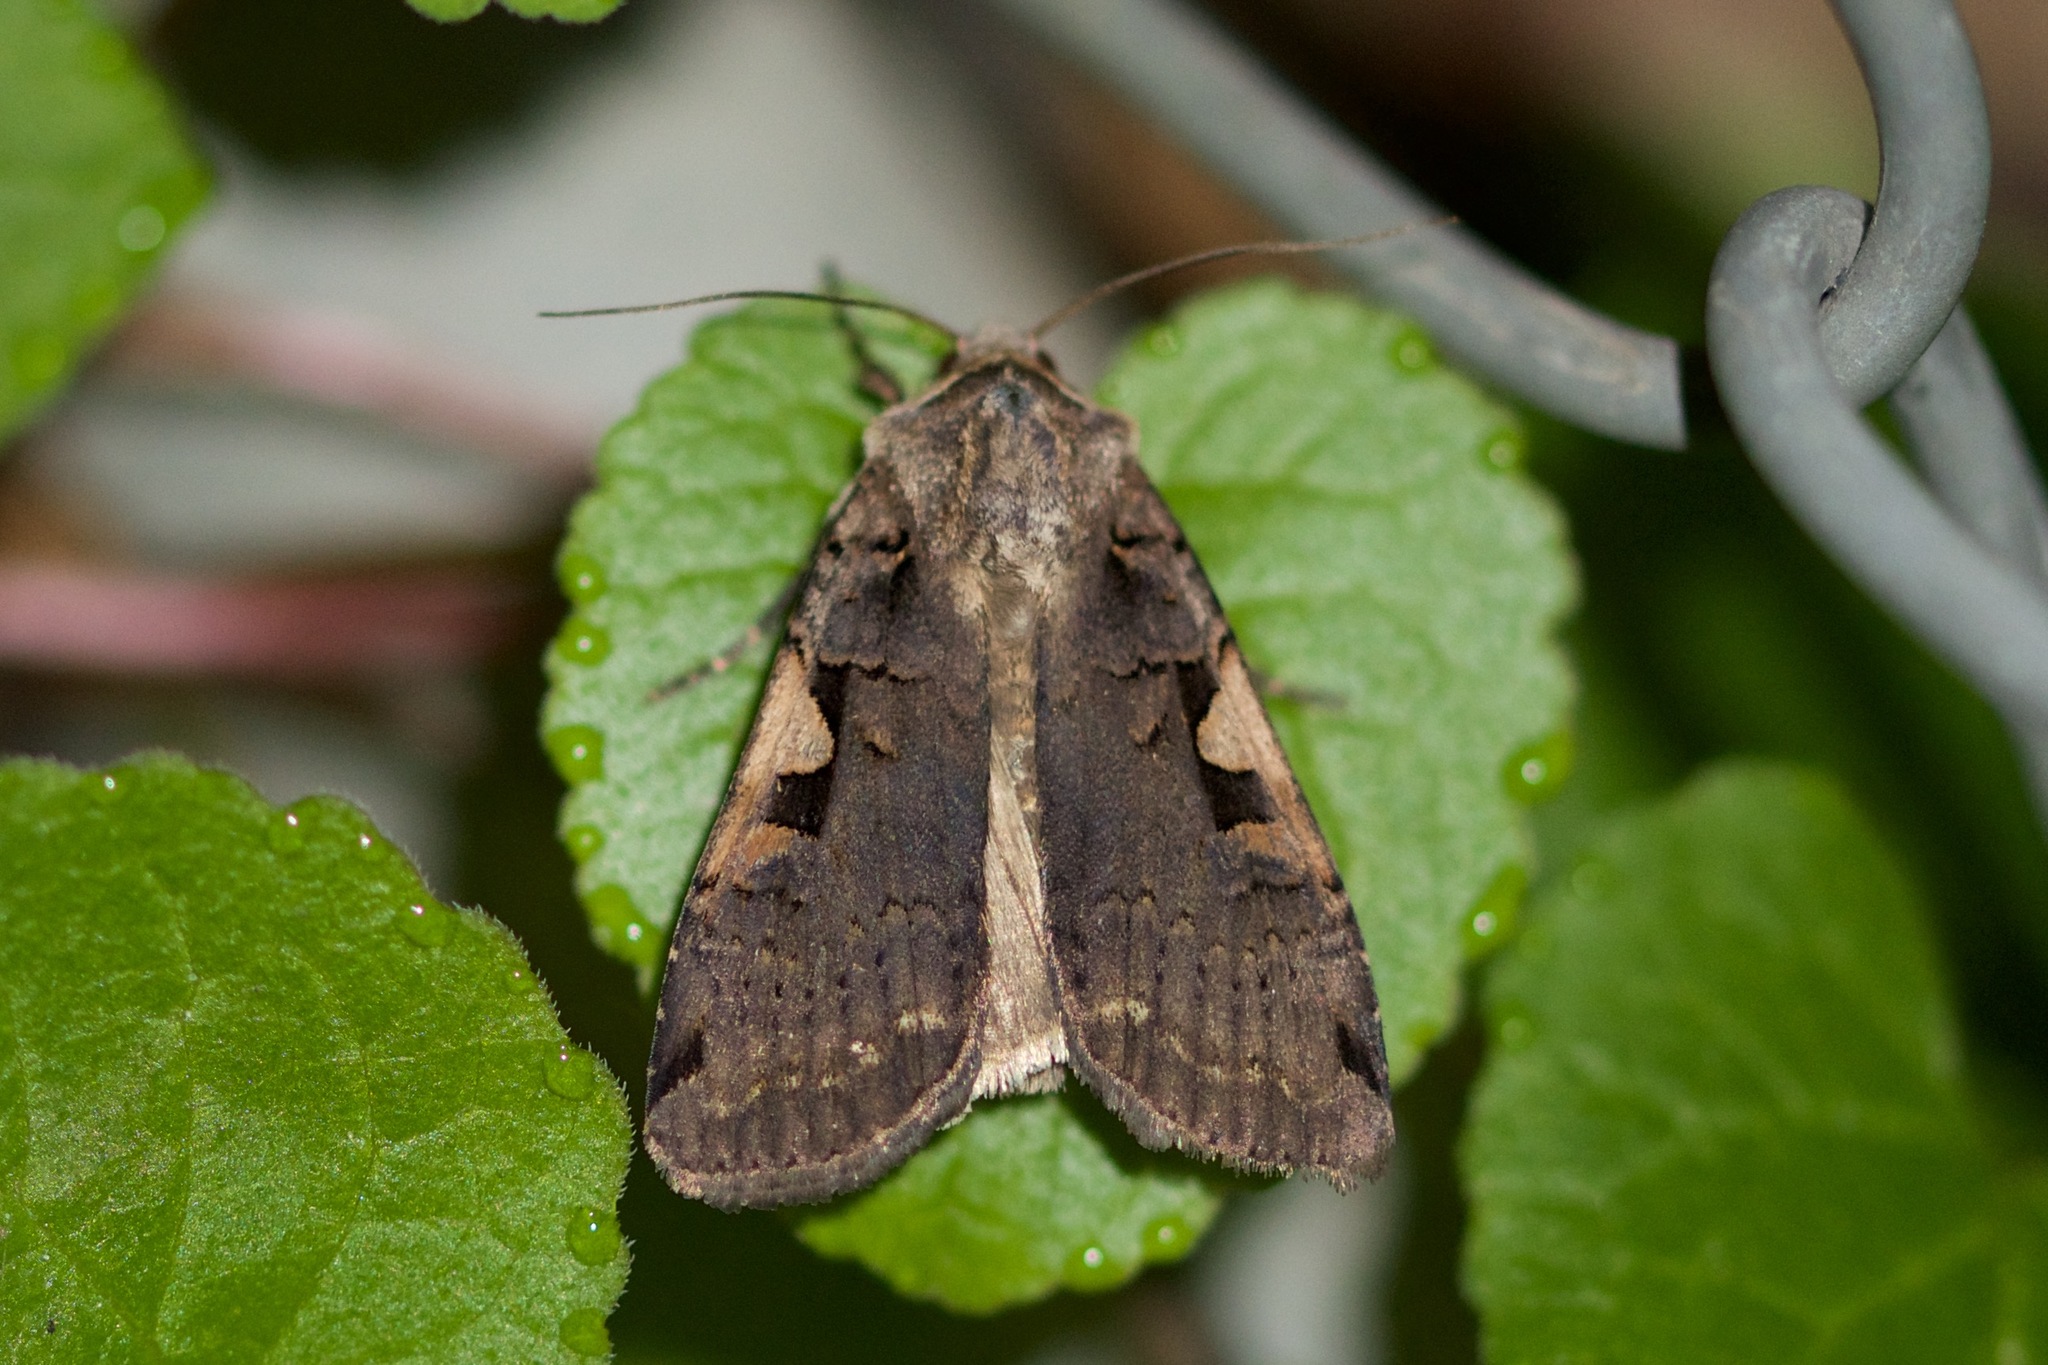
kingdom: Animalia
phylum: Arthropoda
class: Insecta
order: Lepidoptera
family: Noctuidae
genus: Xestia
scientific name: Xestia dolosa
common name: Cutworm moth
